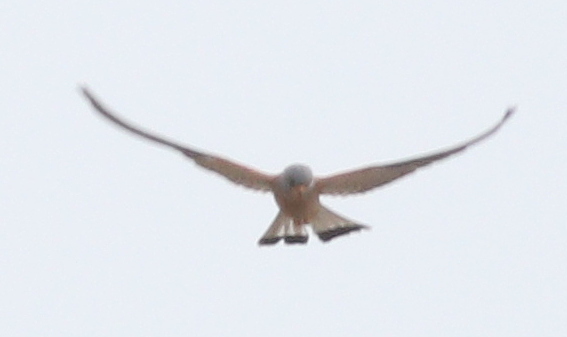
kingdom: Animalia
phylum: Chordata
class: Aves
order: Falconiformes
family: Falconidae
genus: Falco
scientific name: Falco tinnunculus
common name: Common kestrel
